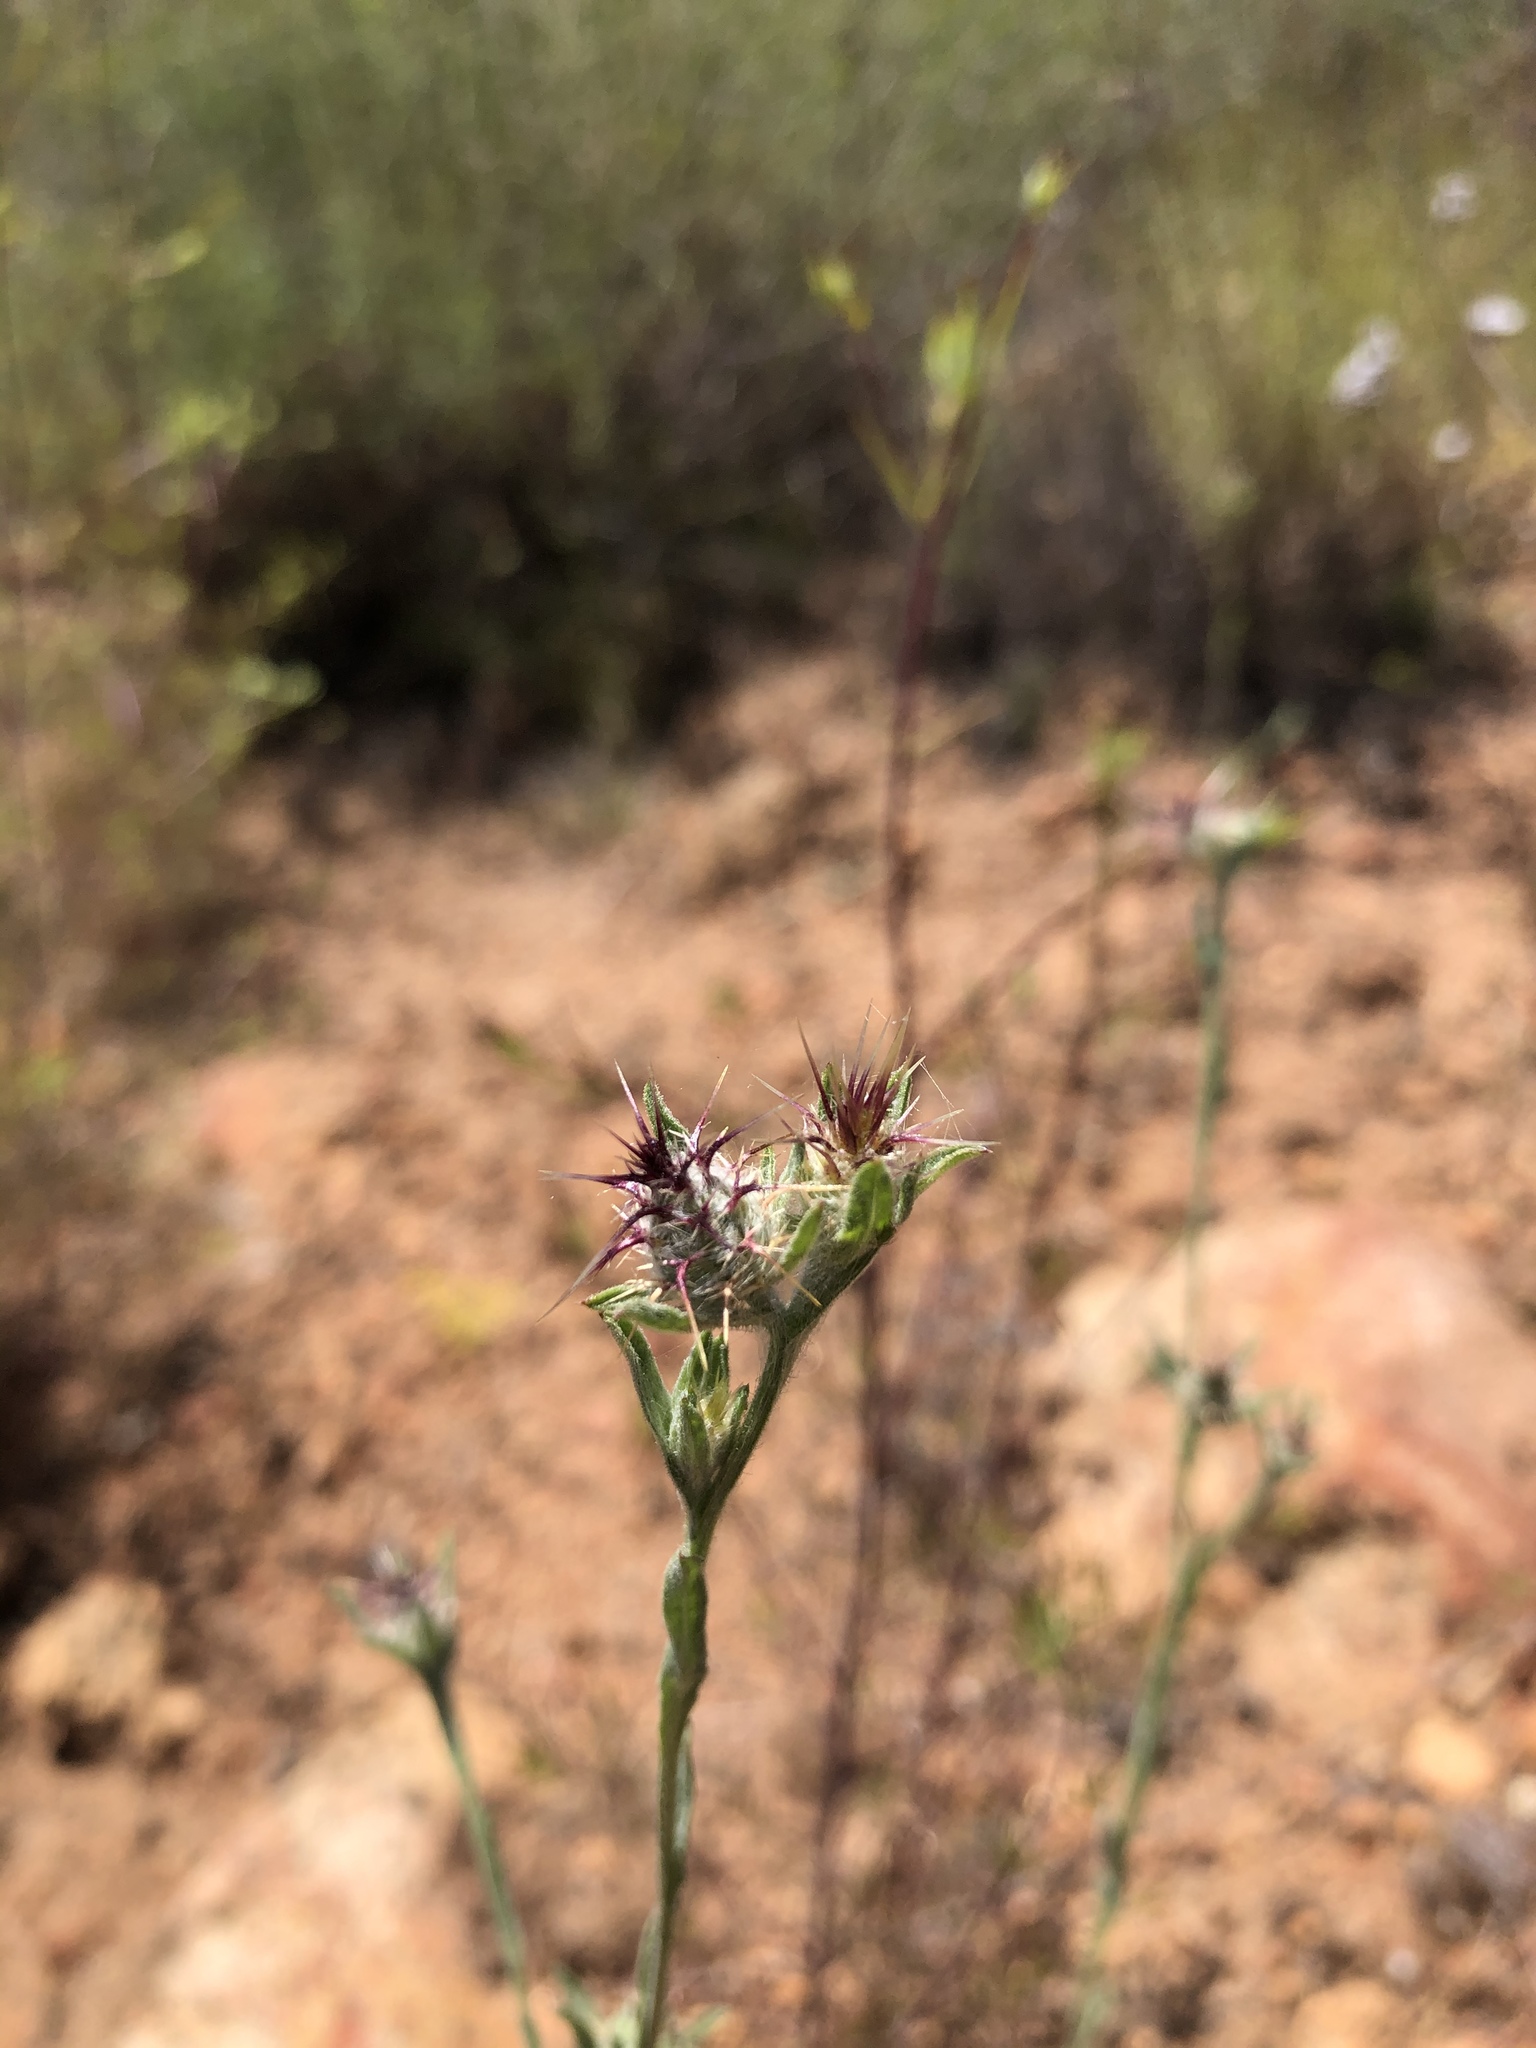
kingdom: Plantae
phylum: Tracheophyta
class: Magnoliopsida
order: Asterales
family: Asteraceae
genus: Centaurea
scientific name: Centaurea melitensis
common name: Maltese star-thistle
